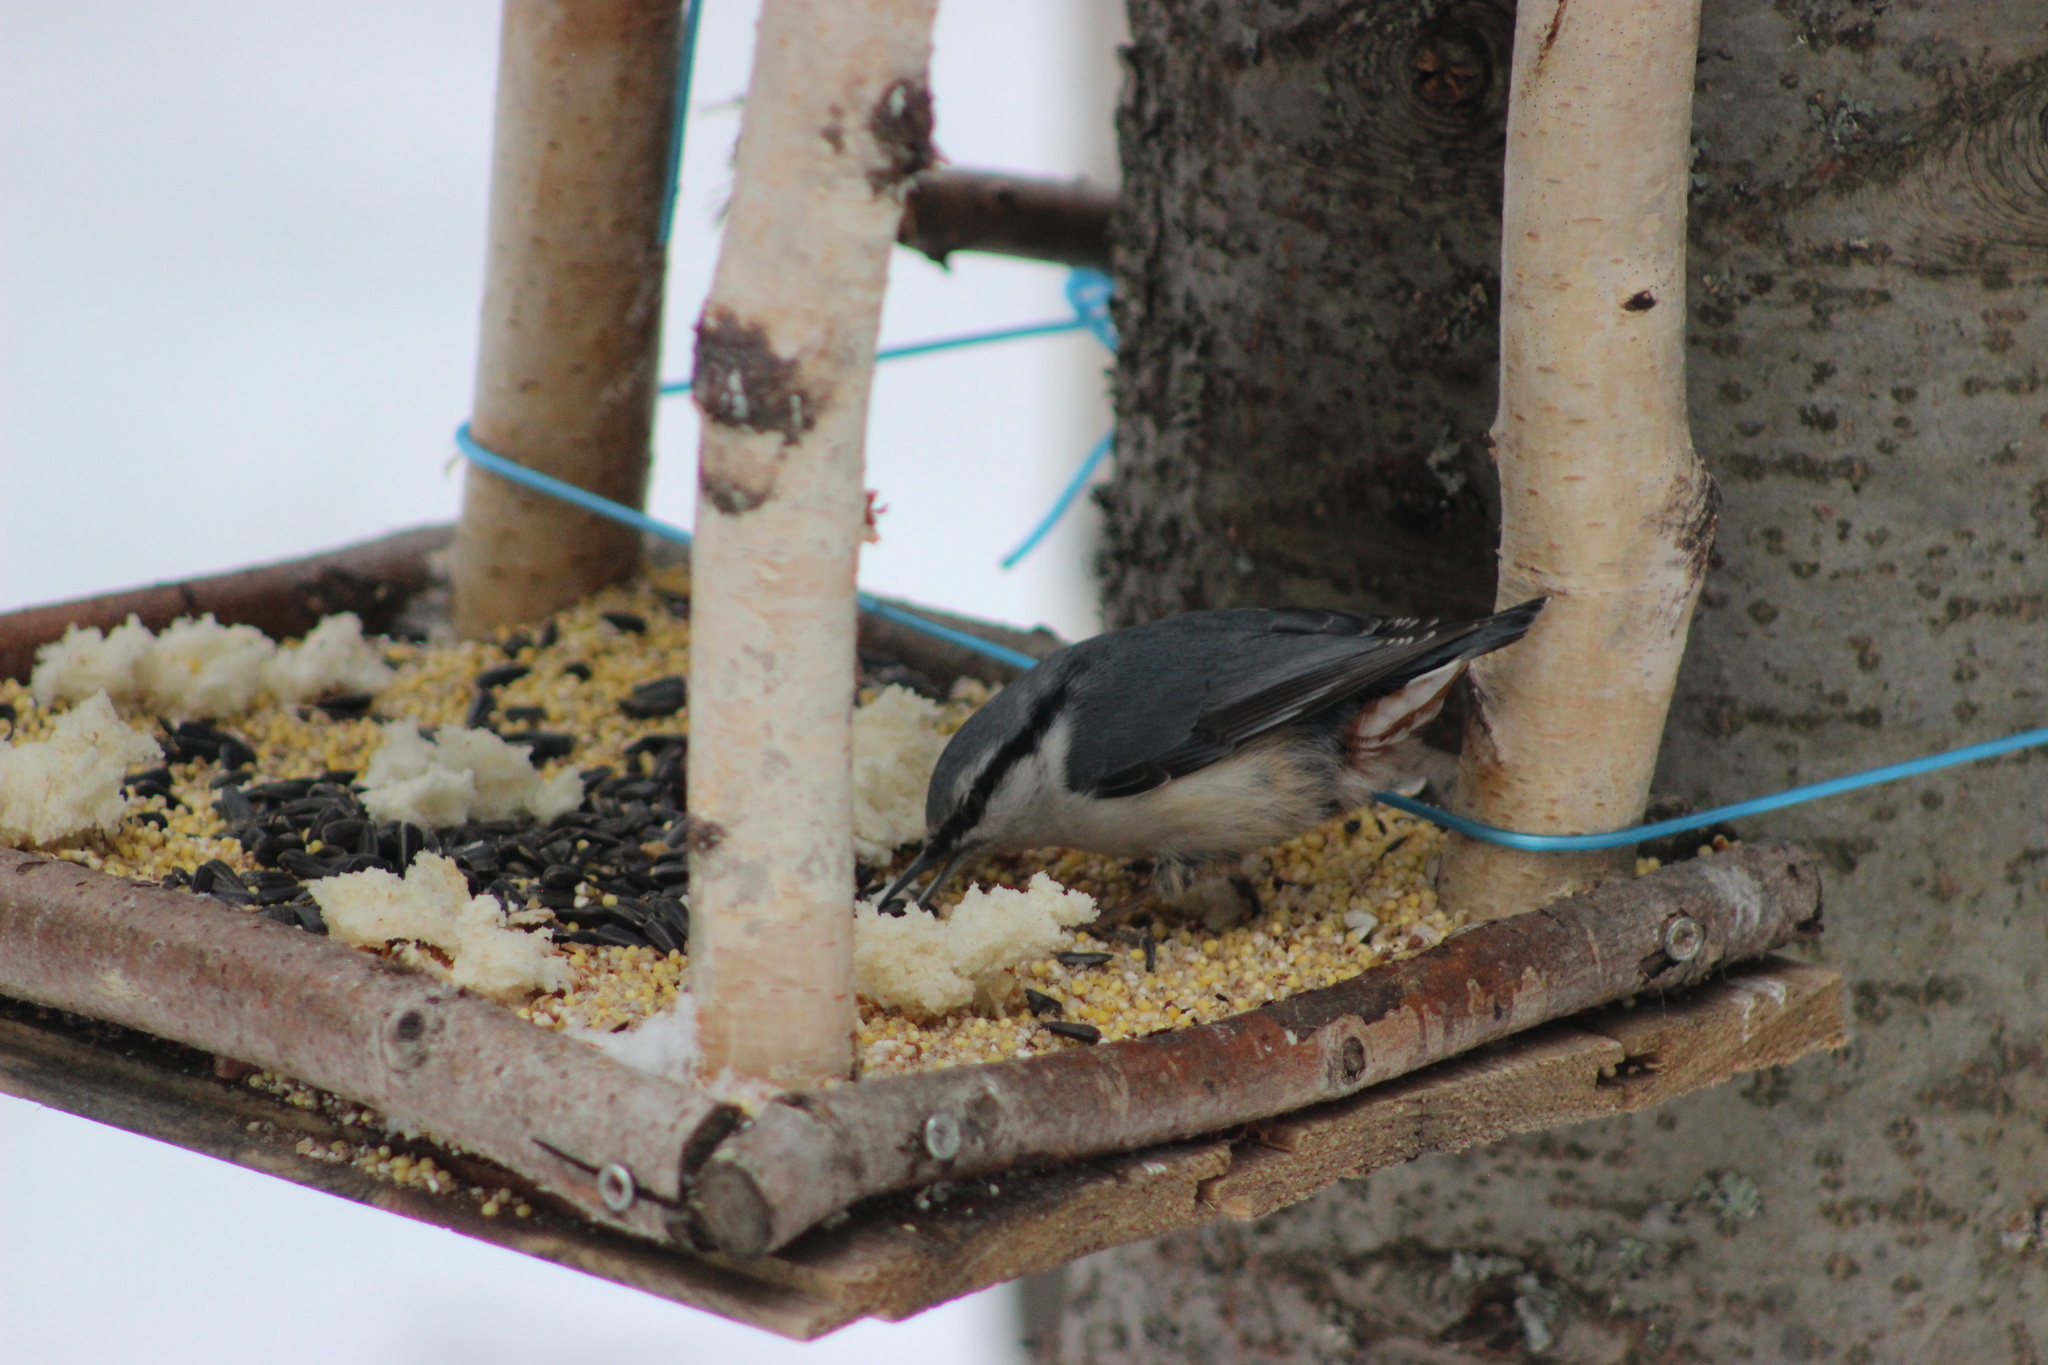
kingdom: Animalia
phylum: Chordata
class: Aves
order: Passeriformes
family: Sittidae
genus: Sitta
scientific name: Sitta europaea
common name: Eurasian nuthatch
